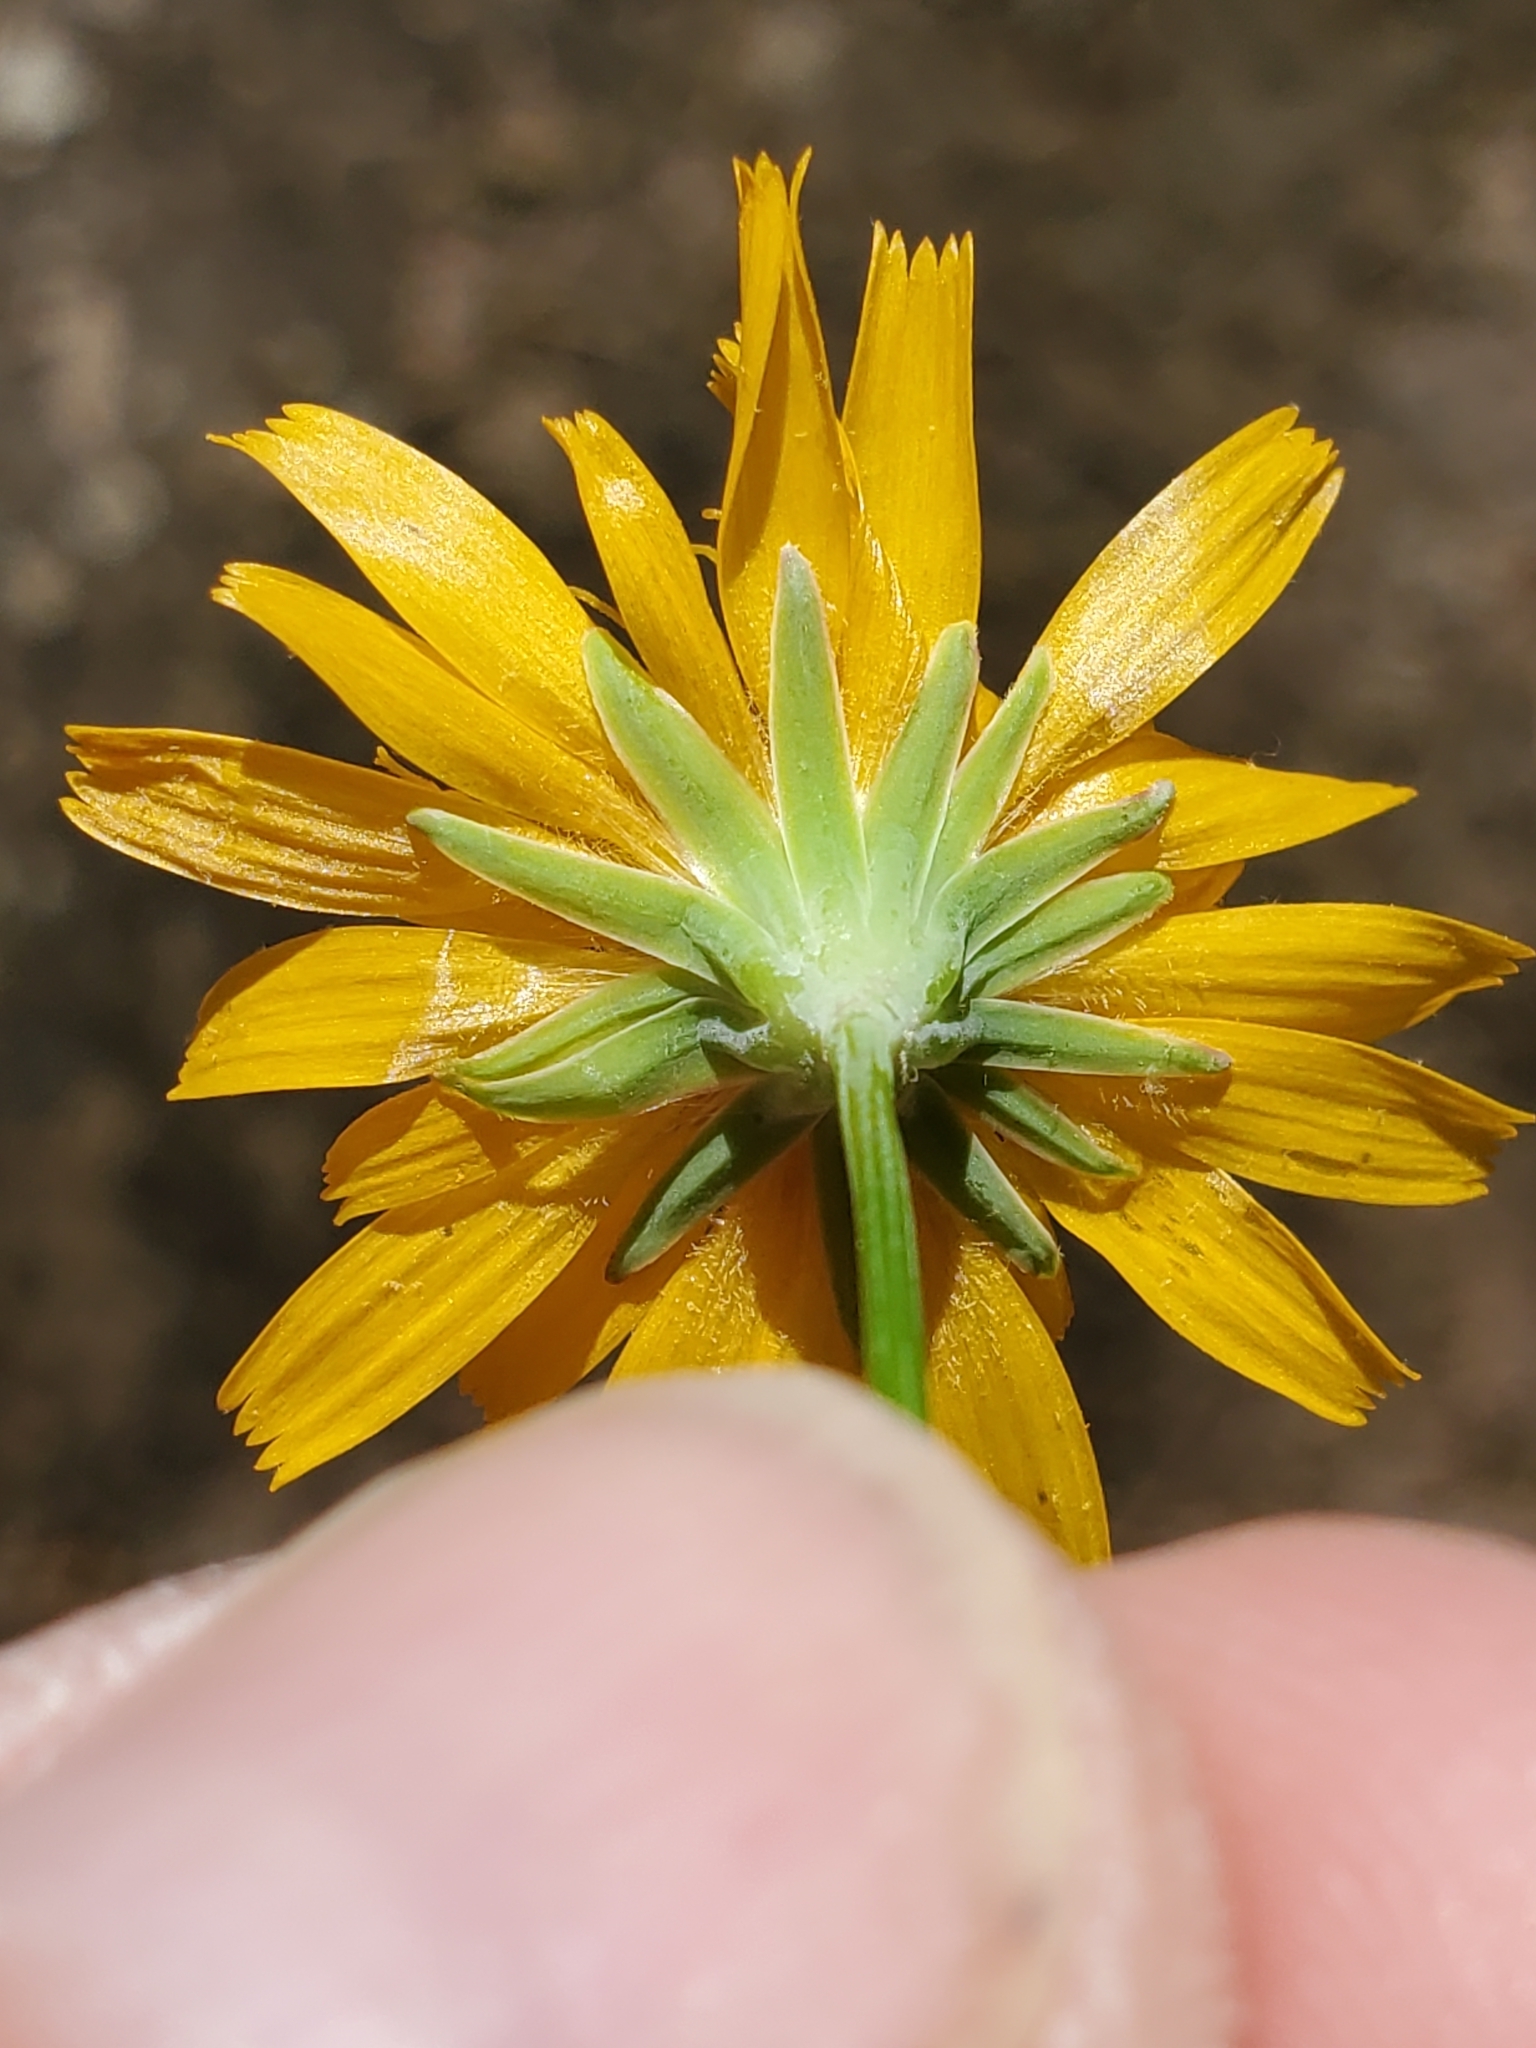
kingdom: Plantae
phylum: Tracheophyta
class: Magnoliopsida
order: Asterales
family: Asteraceae
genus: Krigia
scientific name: Krigia biflora
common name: Orange dwarf-dandelion
